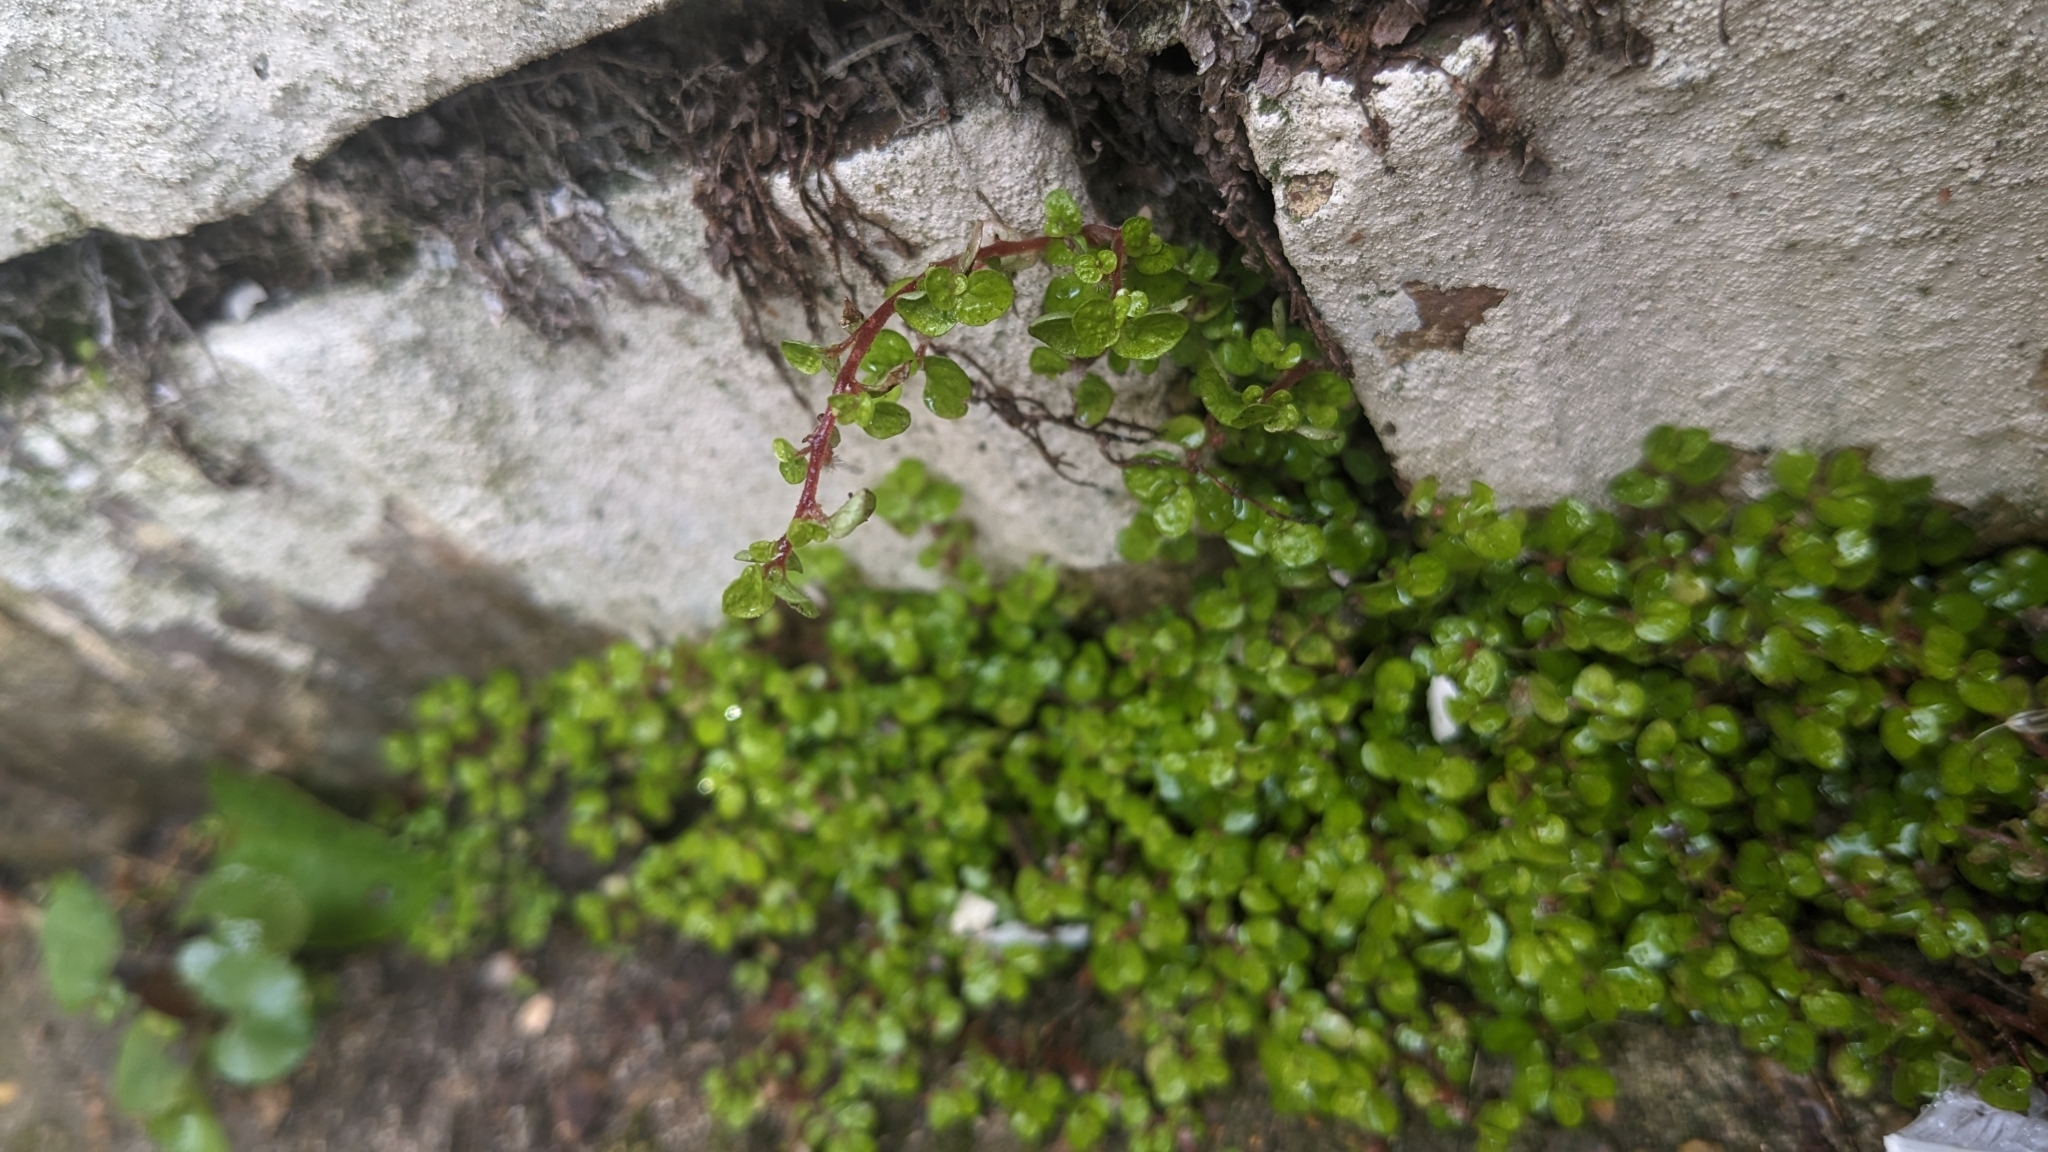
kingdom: Plantae
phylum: Tracheophyta
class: Magnoliopsida
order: Rosales
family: Urticaceae
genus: Soleirolia
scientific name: Soleirolia soleirolii
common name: Mind-your-own-business
